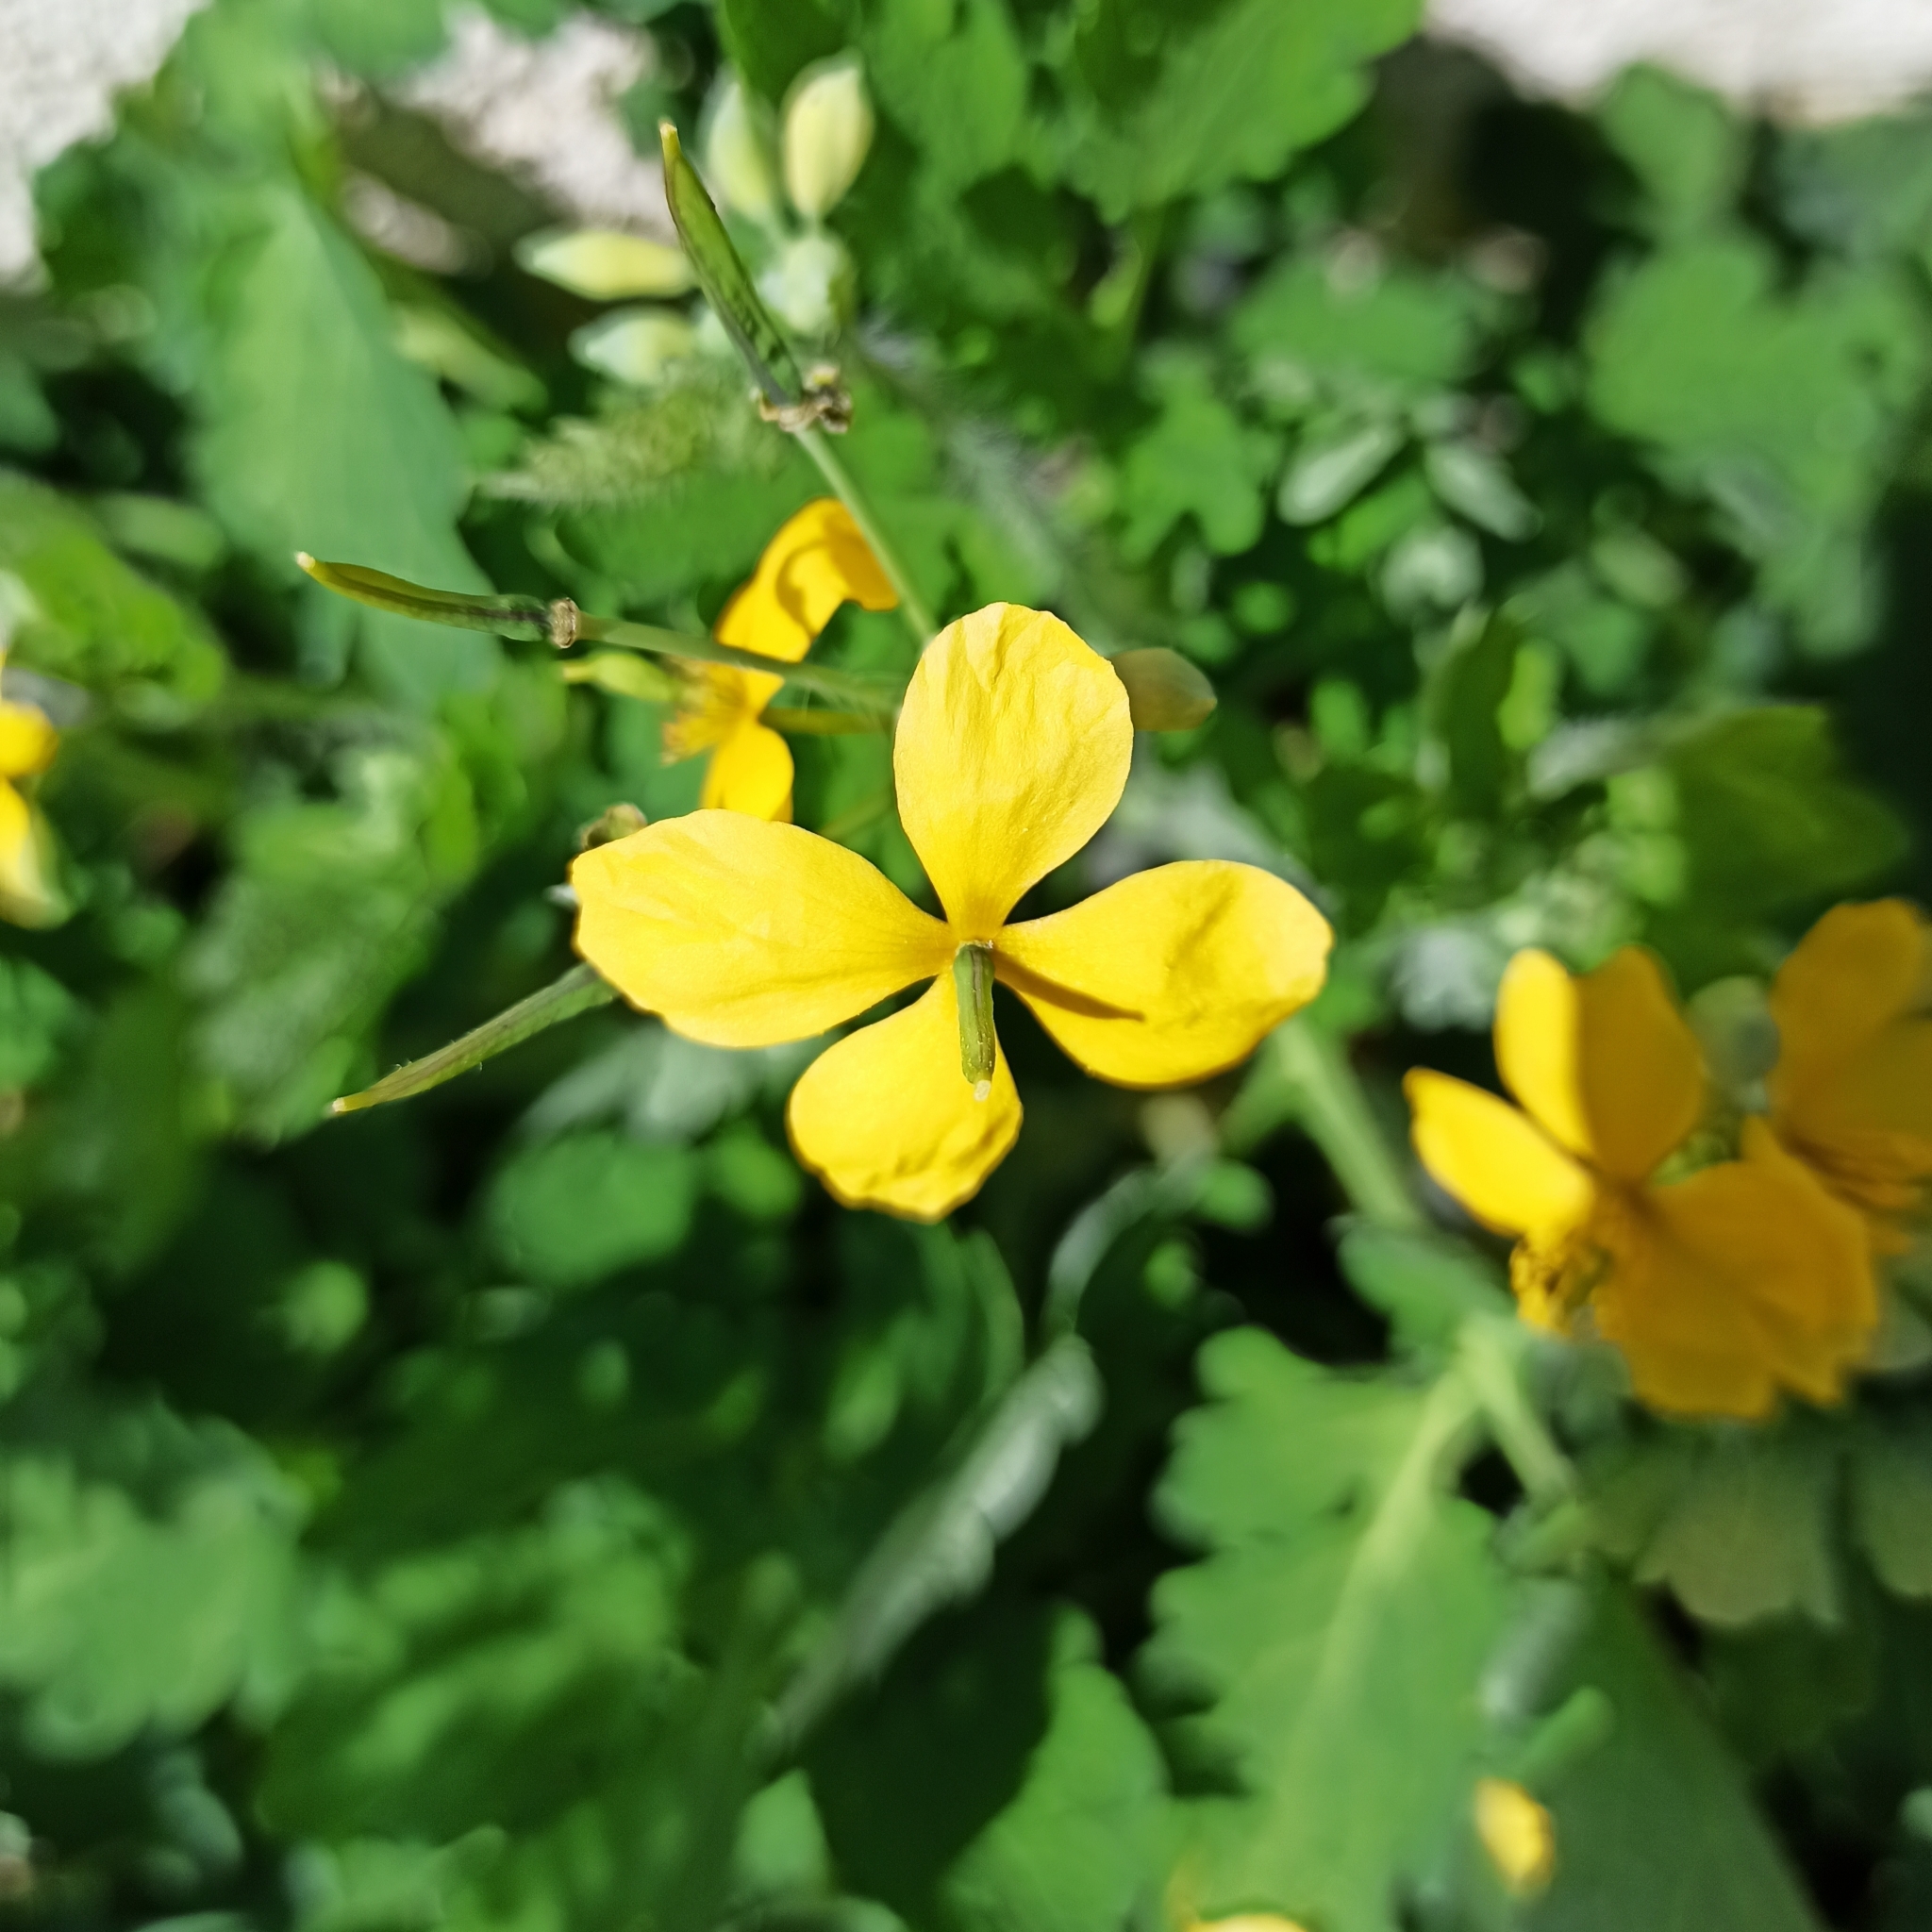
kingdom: Plantae
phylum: Tracheophyta
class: Magnoliopsida
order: Ranunculales
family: Papaveraceae
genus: Chelidonium
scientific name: Chelidonium majus
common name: Greater celandine
